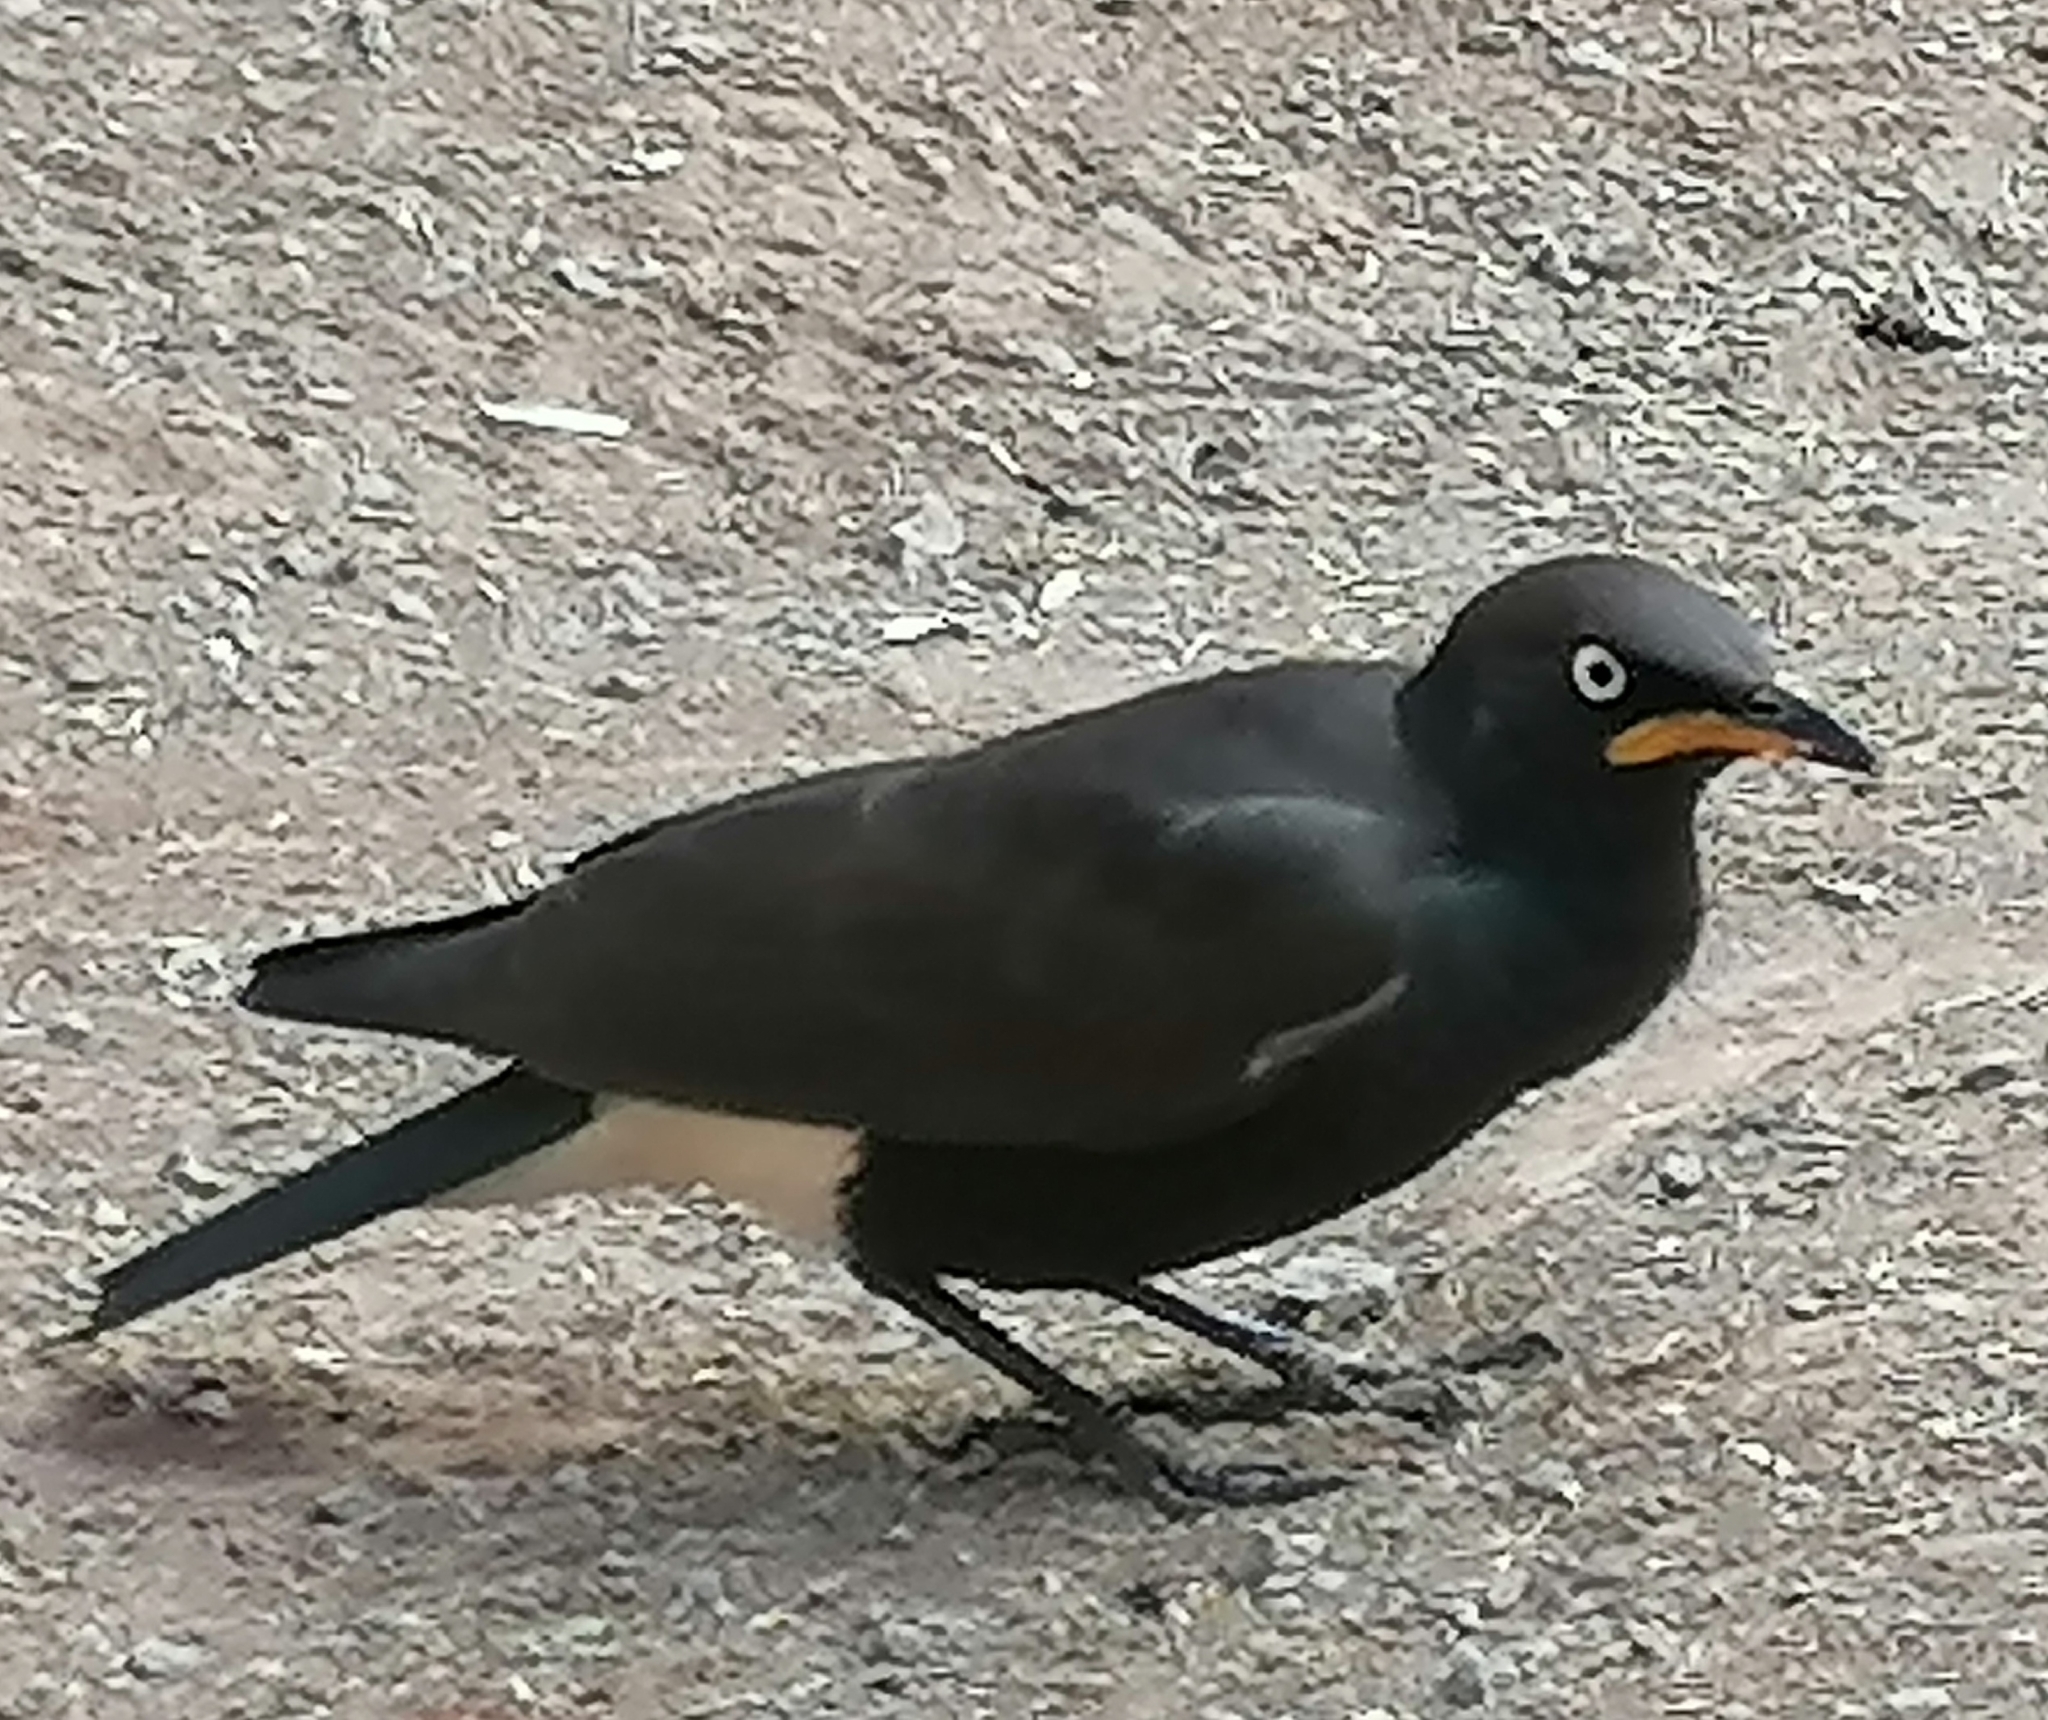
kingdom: Animalia
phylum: Chordata
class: Aves
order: Passeriformes
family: Sturnidae
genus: Lamprotornis
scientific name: Lamprotornis bicolor
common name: Pied starling
